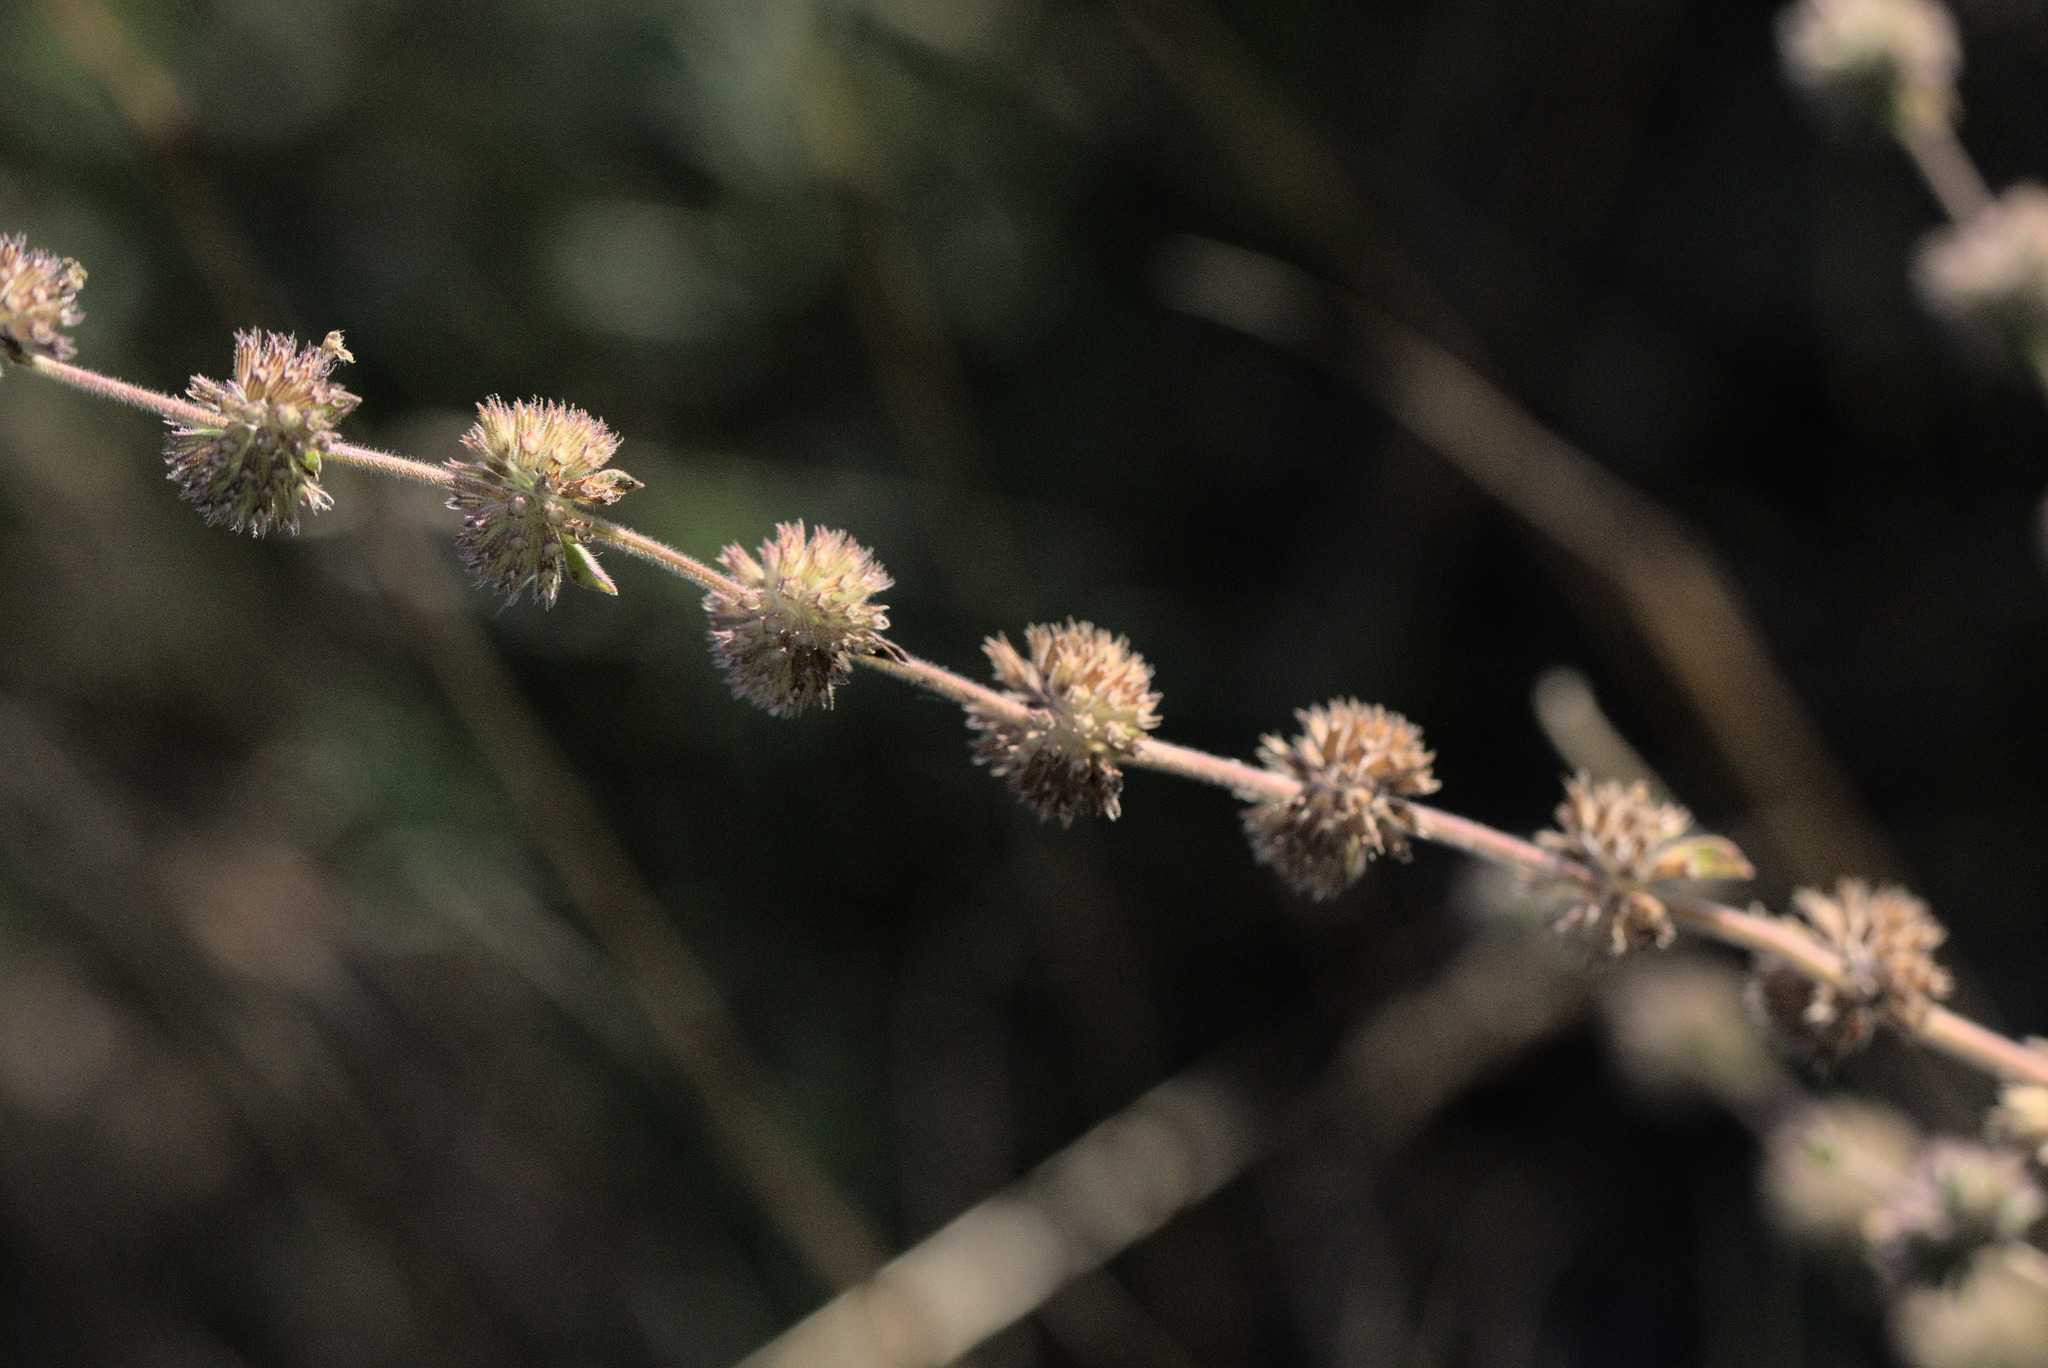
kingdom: Plantae
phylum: Tracheophyta
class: Magnoliopsida
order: Lamiales
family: Lamiaceae
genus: Mentha
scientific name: Mentha pulegium
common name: Pennyroyal
